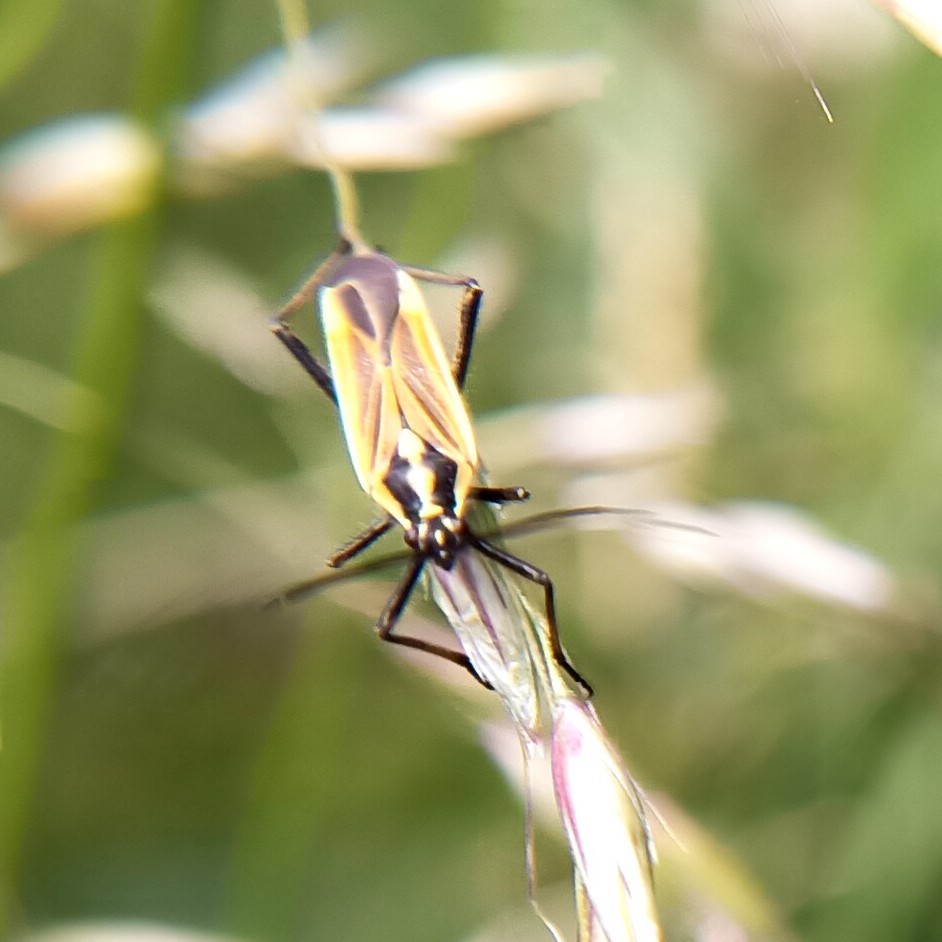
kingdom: Animalia
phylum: Arthropoda
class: Insecta
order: Hemiptera
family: Miridae
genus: Leptopterna
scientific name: Leptopterna dolabrata
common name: Meadow plant bug
